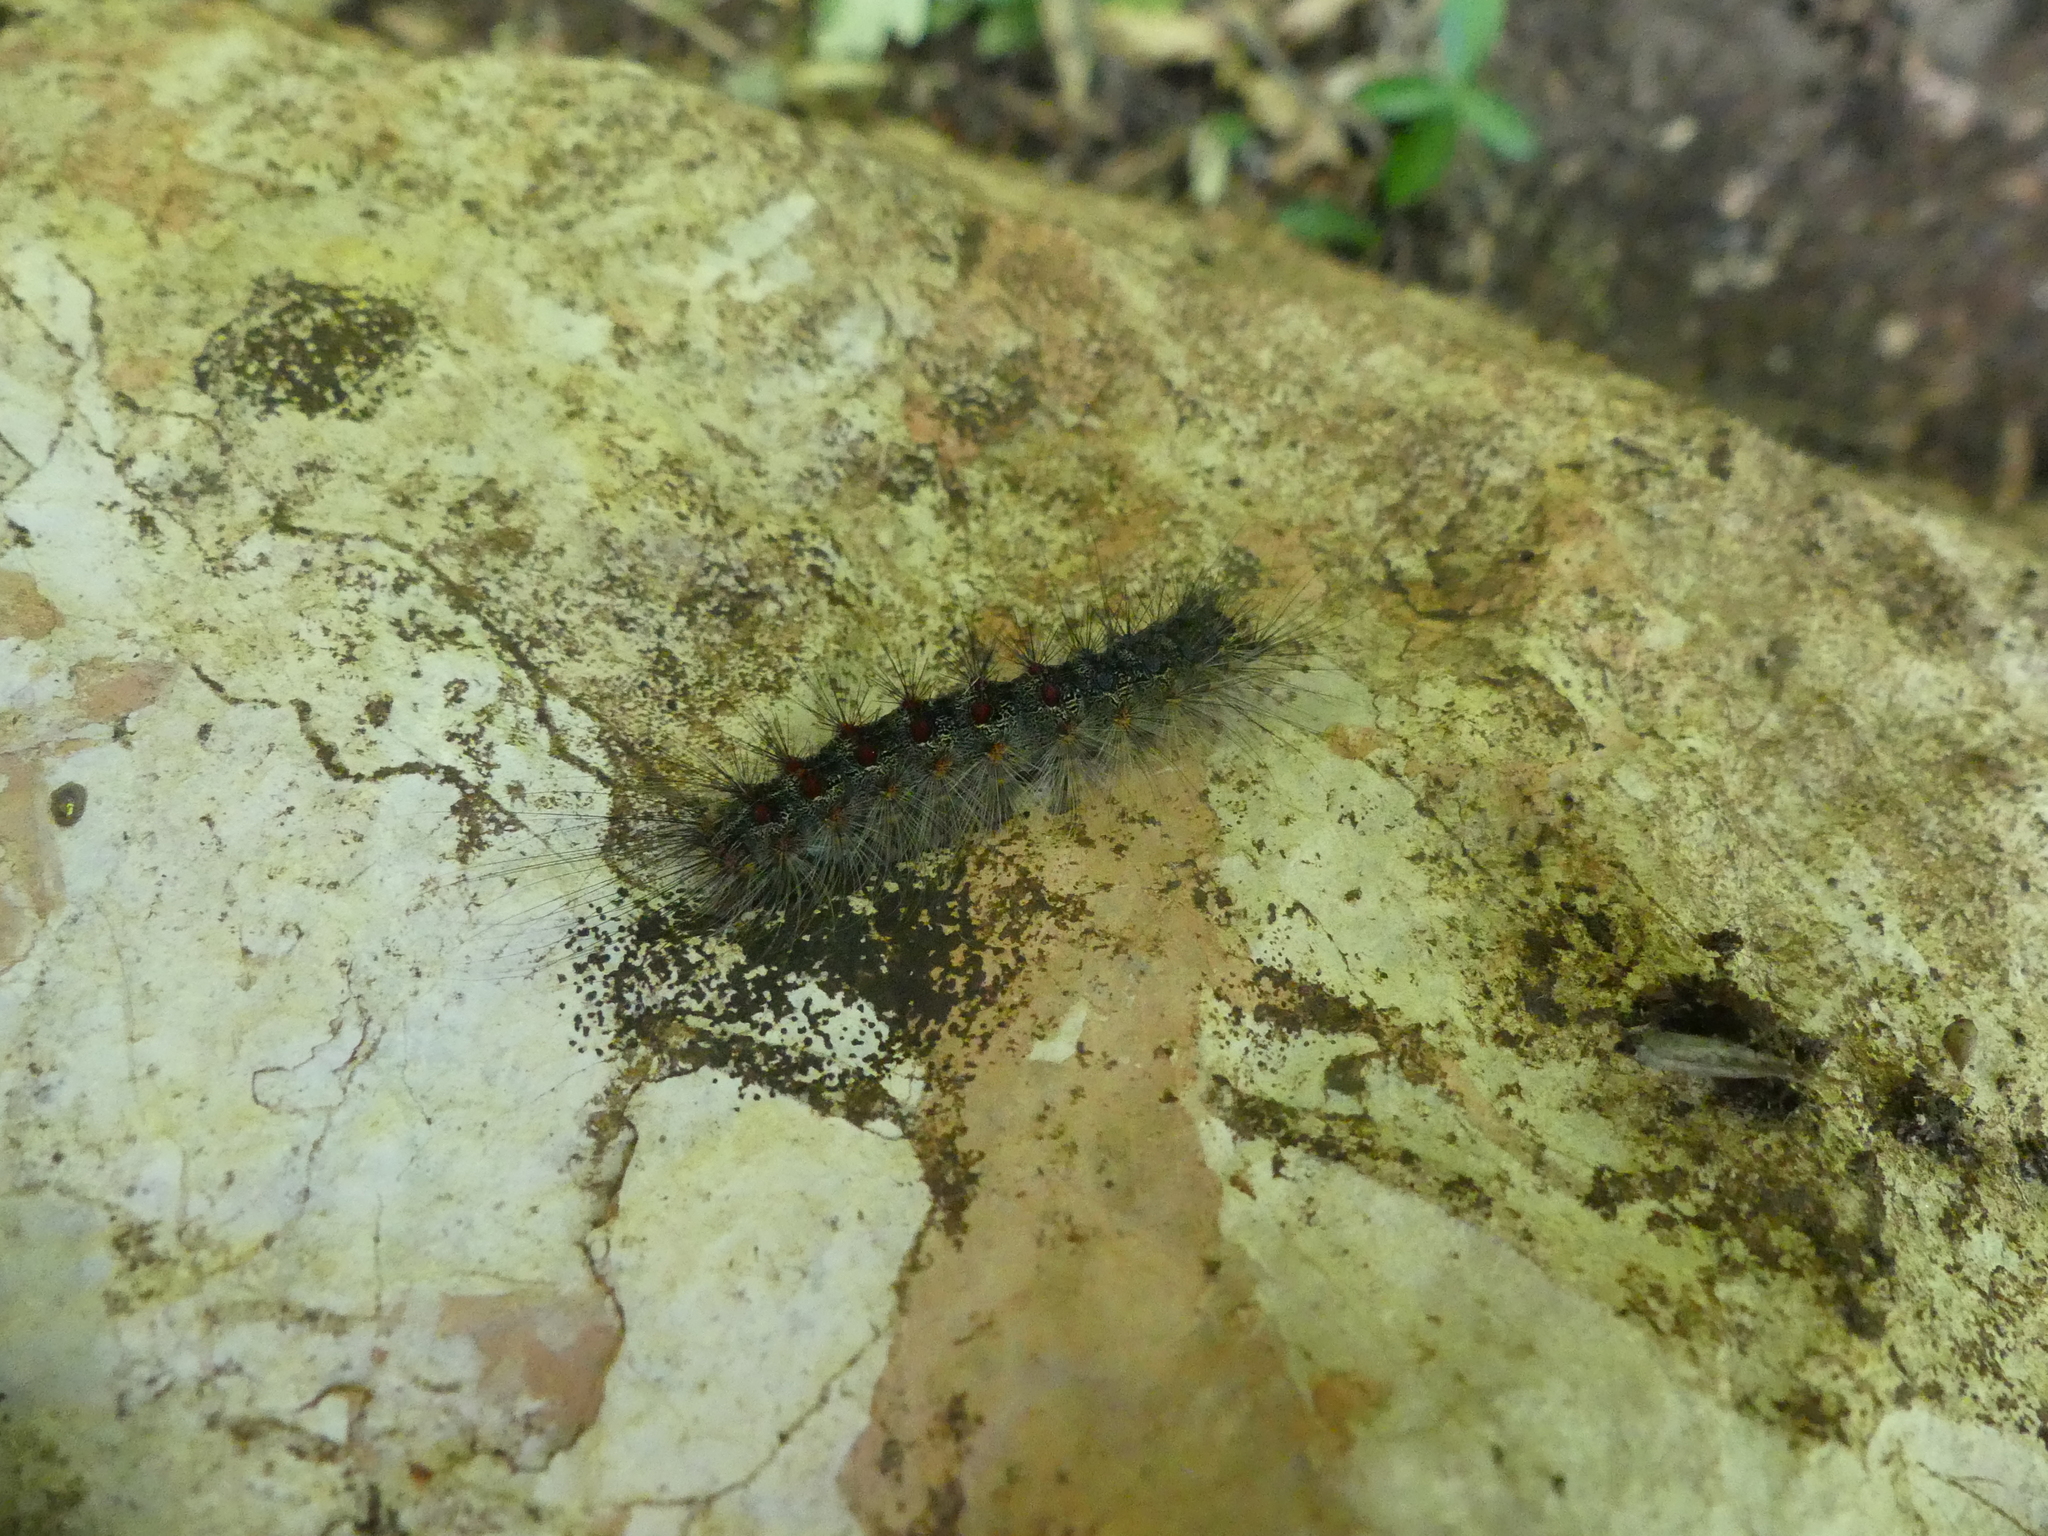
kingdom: Animalia
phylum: Arthropoda
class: Insecta
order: Lepidoptera
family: Erebidae
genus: Lymantria
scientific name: Lymantria dispar
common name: Gypsy moth
